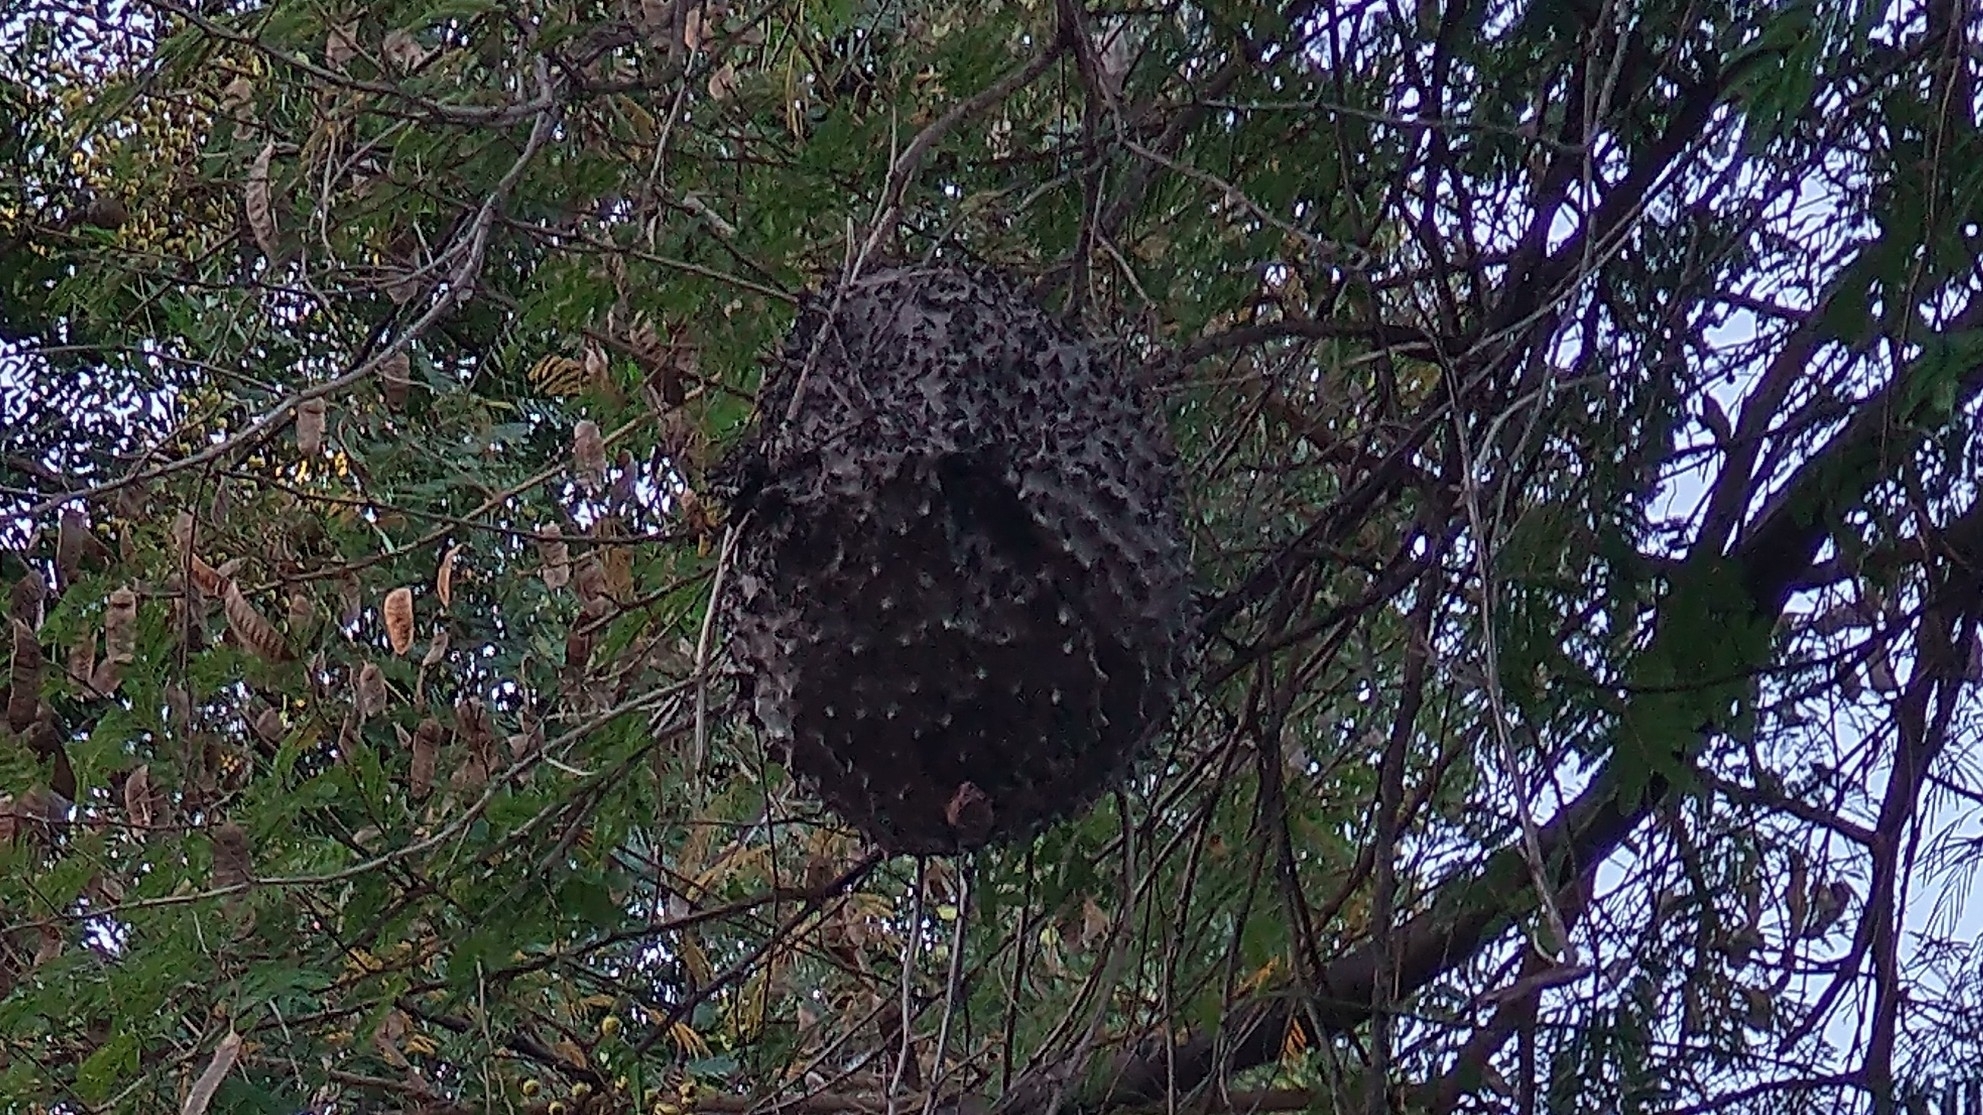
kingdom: Animalia
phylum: Arthropoda
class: Insecta
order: Hymenoptera
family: Eumenidae
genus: Polybia
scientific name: Polybia scutellaris
